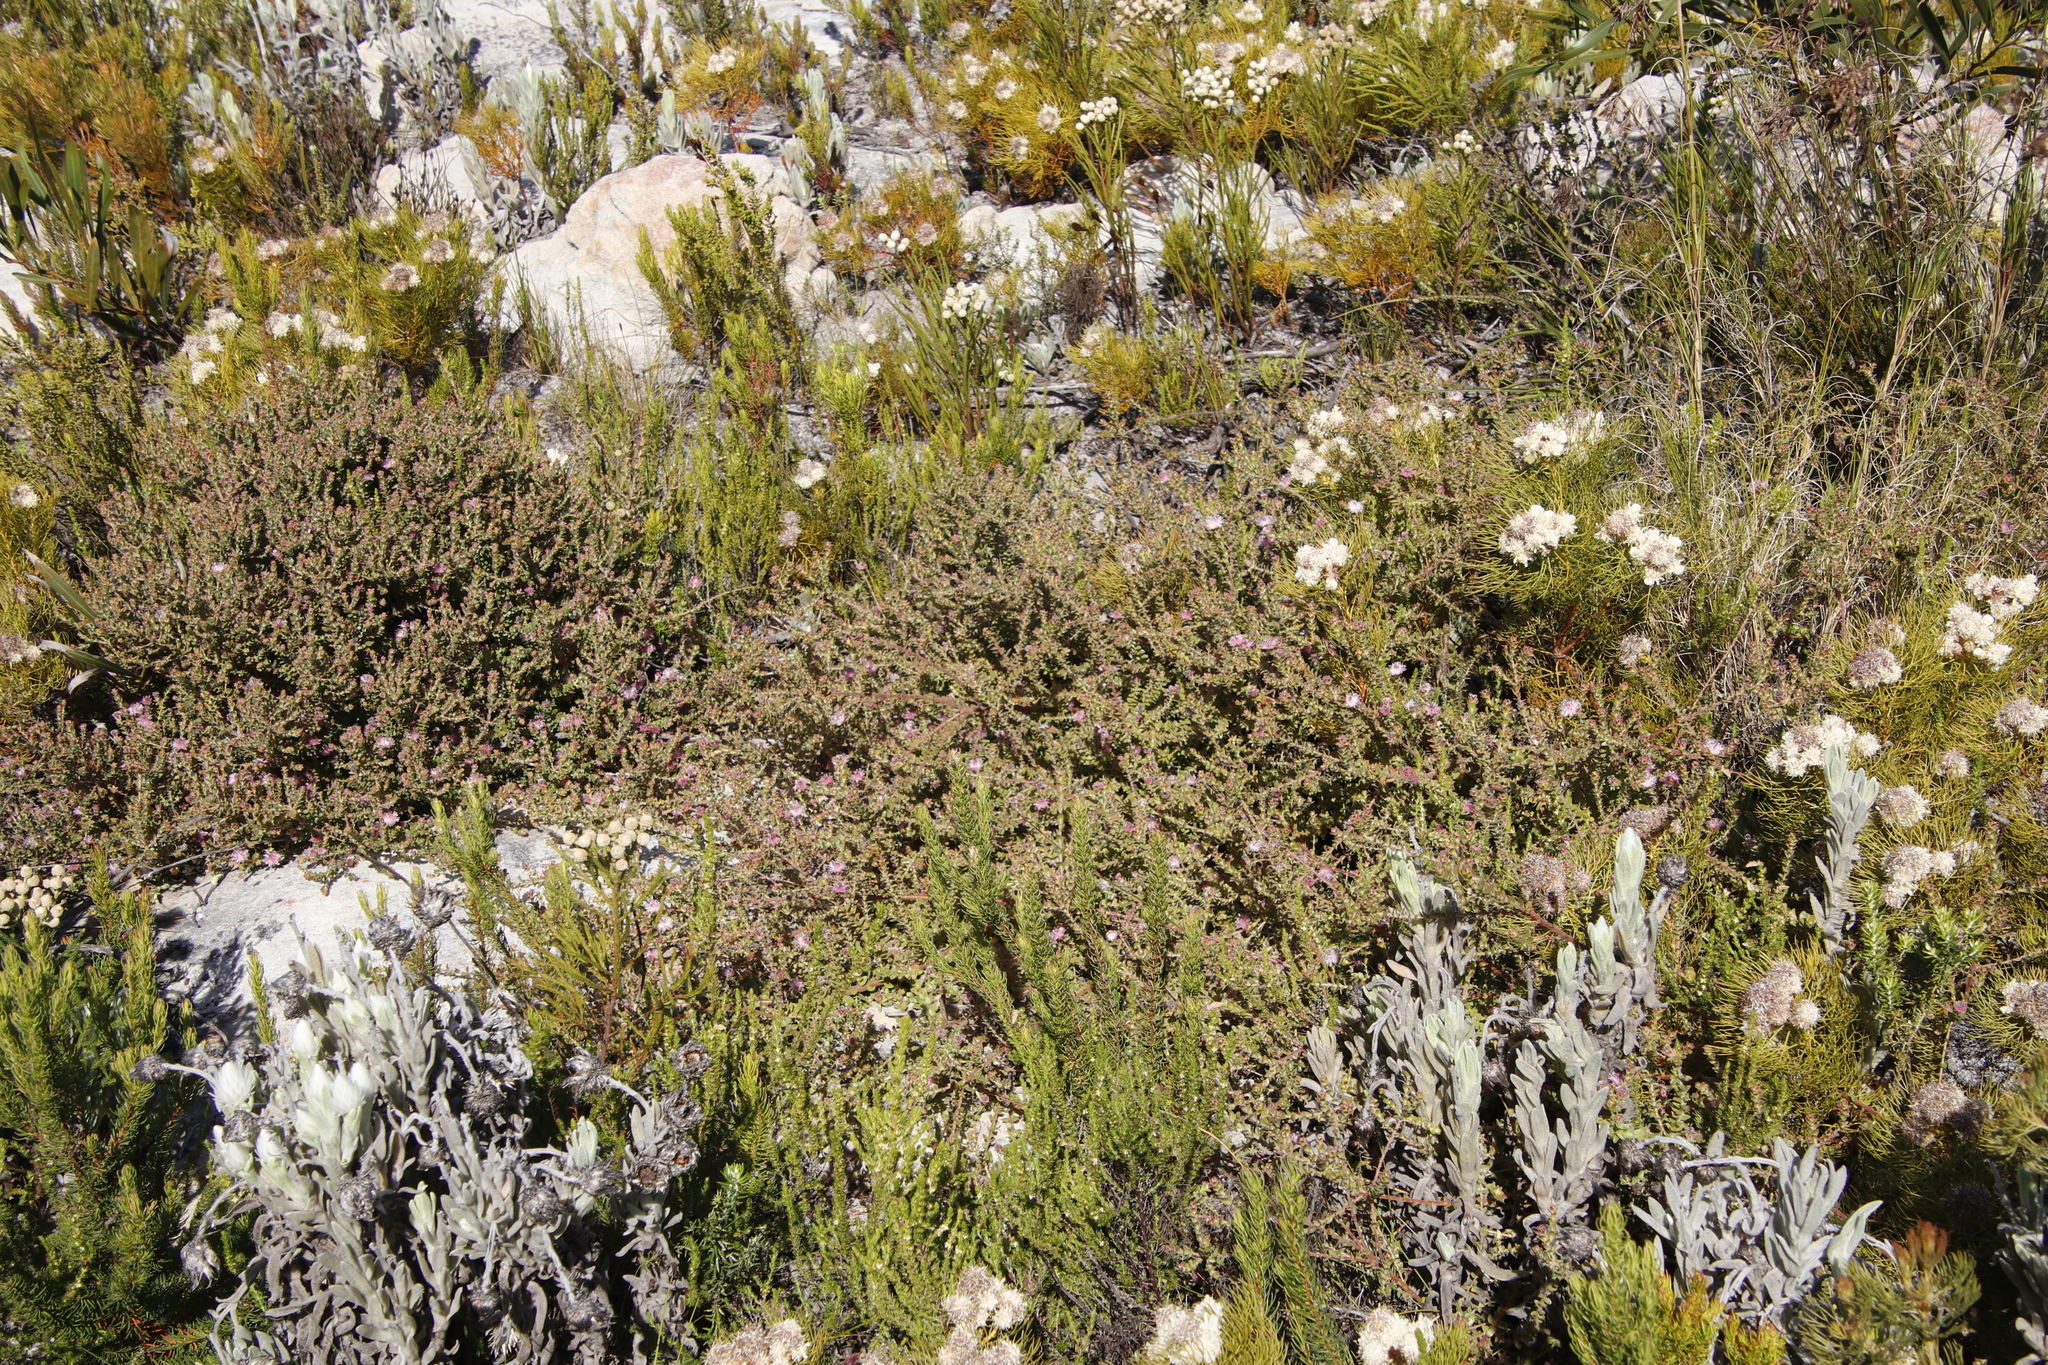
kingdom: Plantae
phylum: Tracheophyta
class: Magnoliopsida
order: Proteales
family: Proteaceae
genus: Diastella
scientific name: Diastella divaricata
